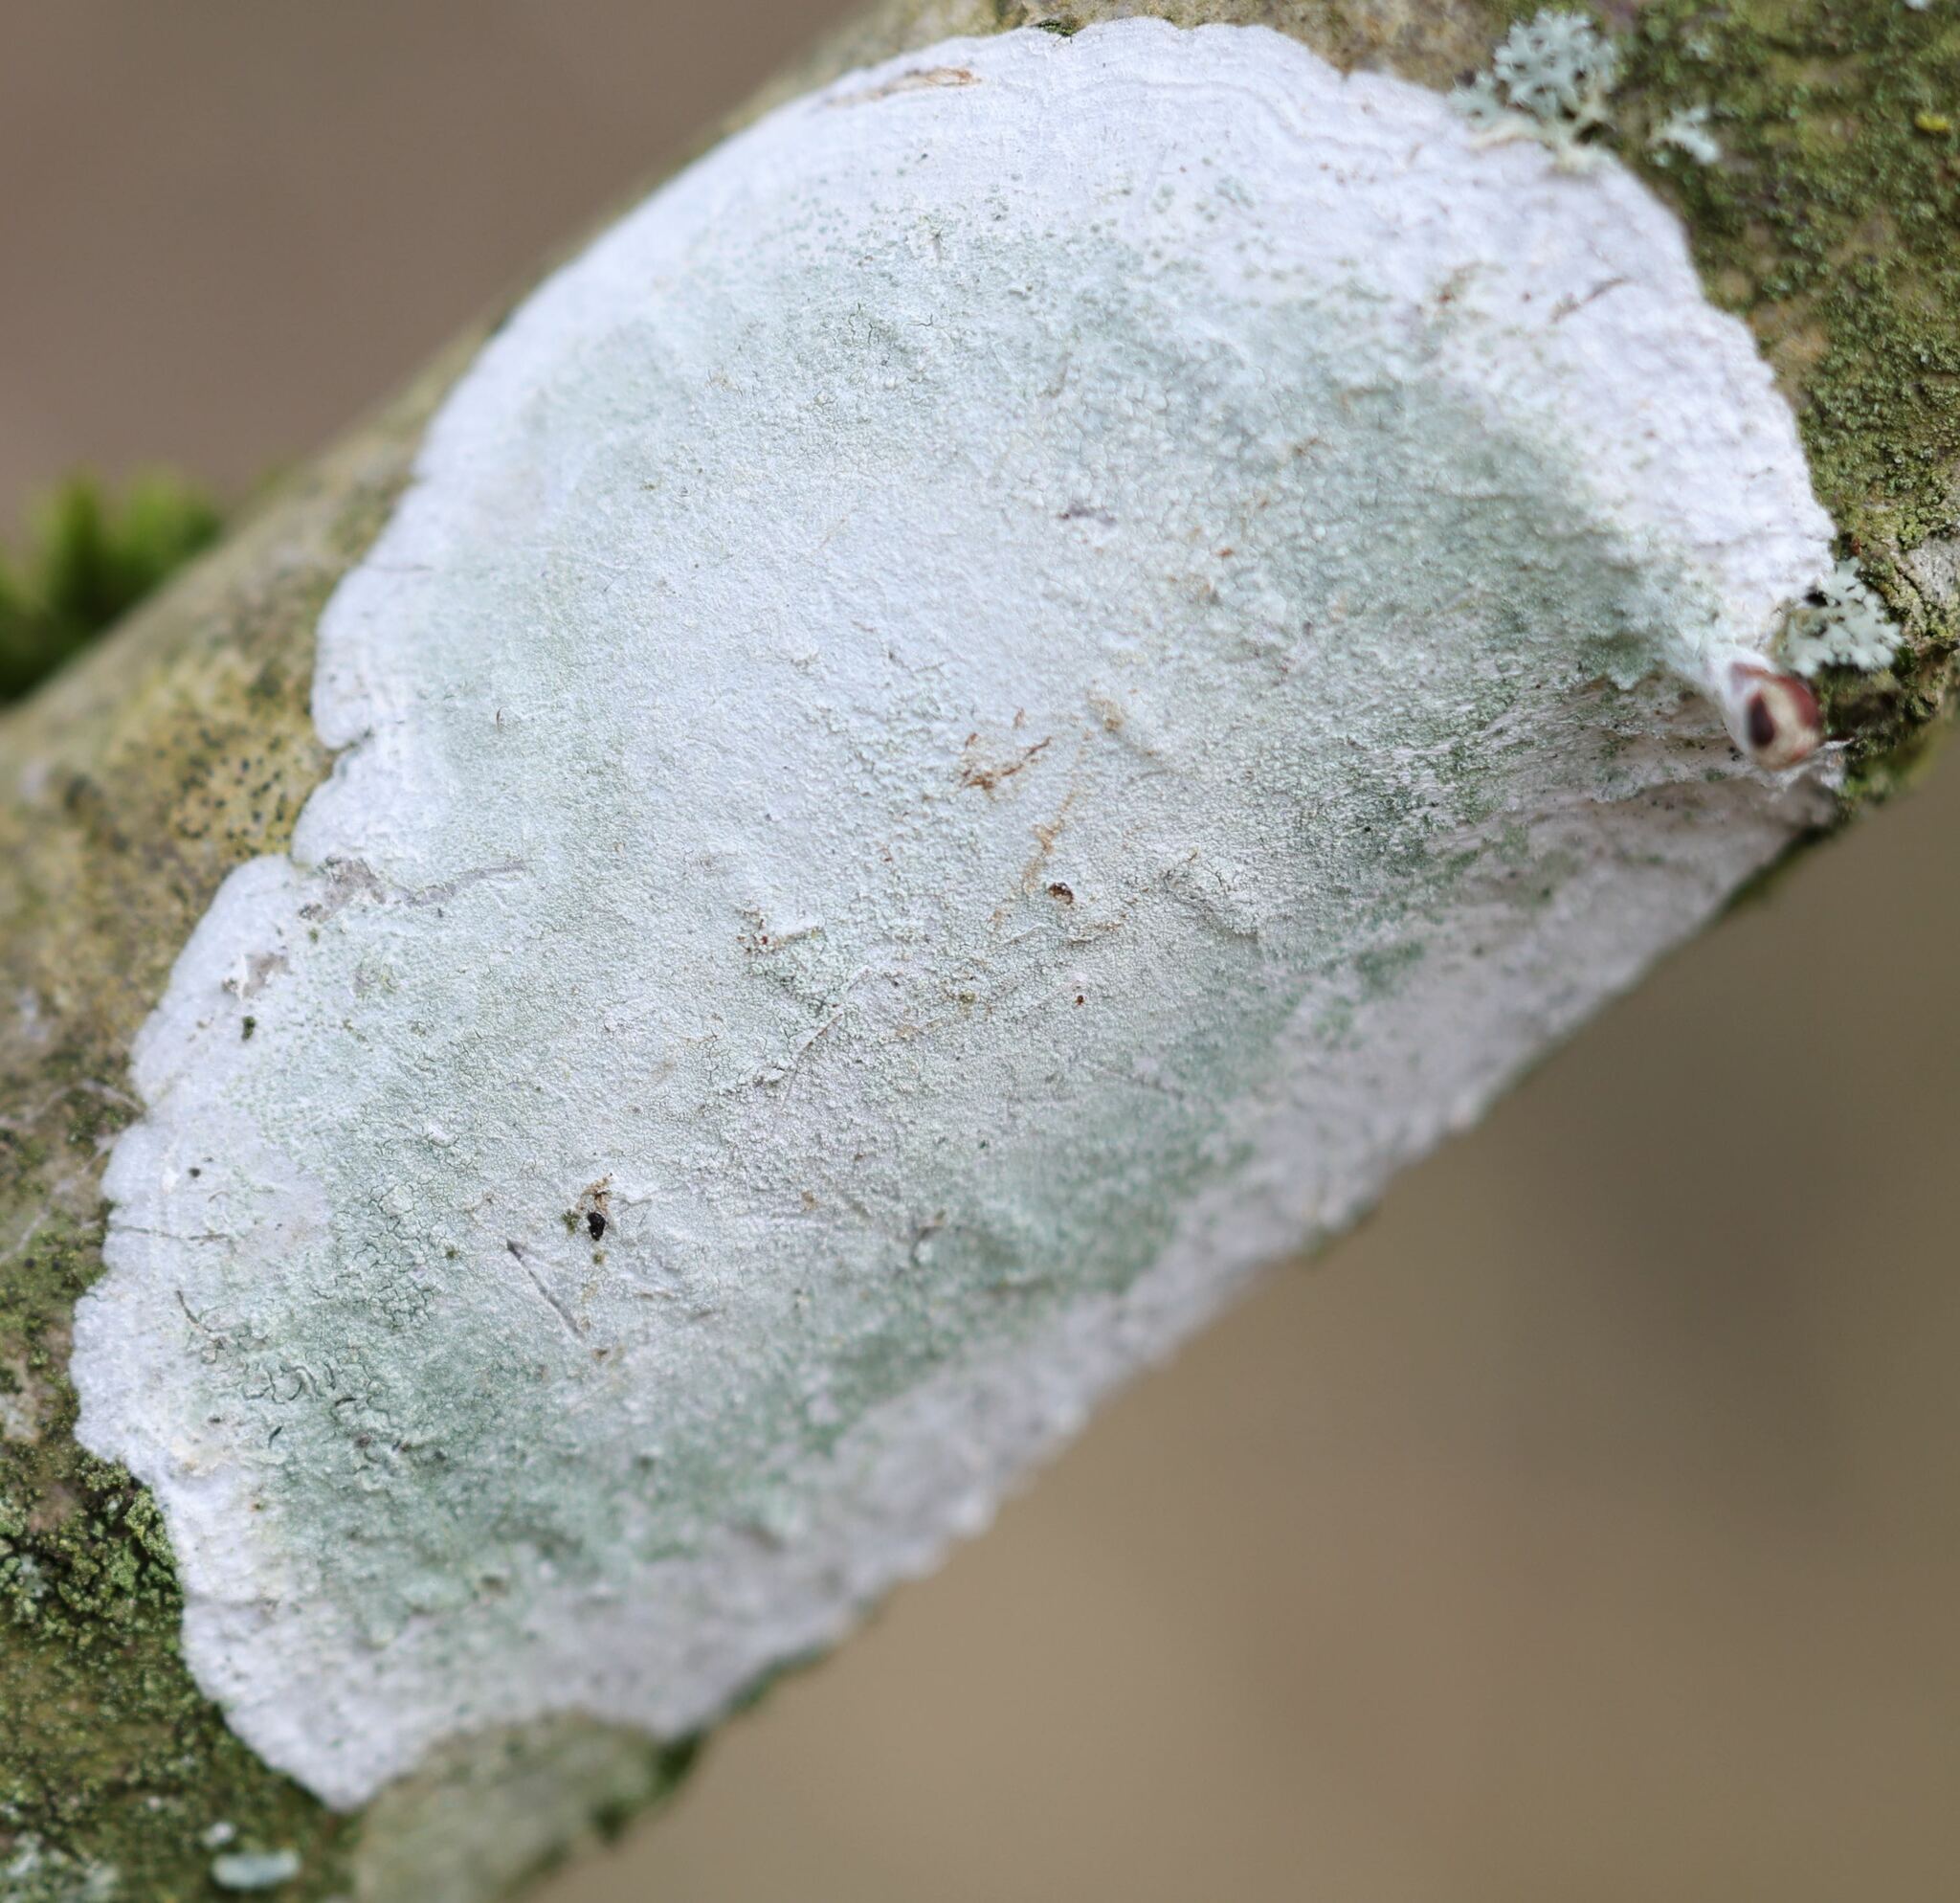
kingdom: Fungi
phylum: Ascomycota
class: Lecanoromycetes
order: Ostropales
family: Phlyctidaceae
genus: Phlyctis
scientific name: Phlyctis argena
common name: Whitewash lichen
